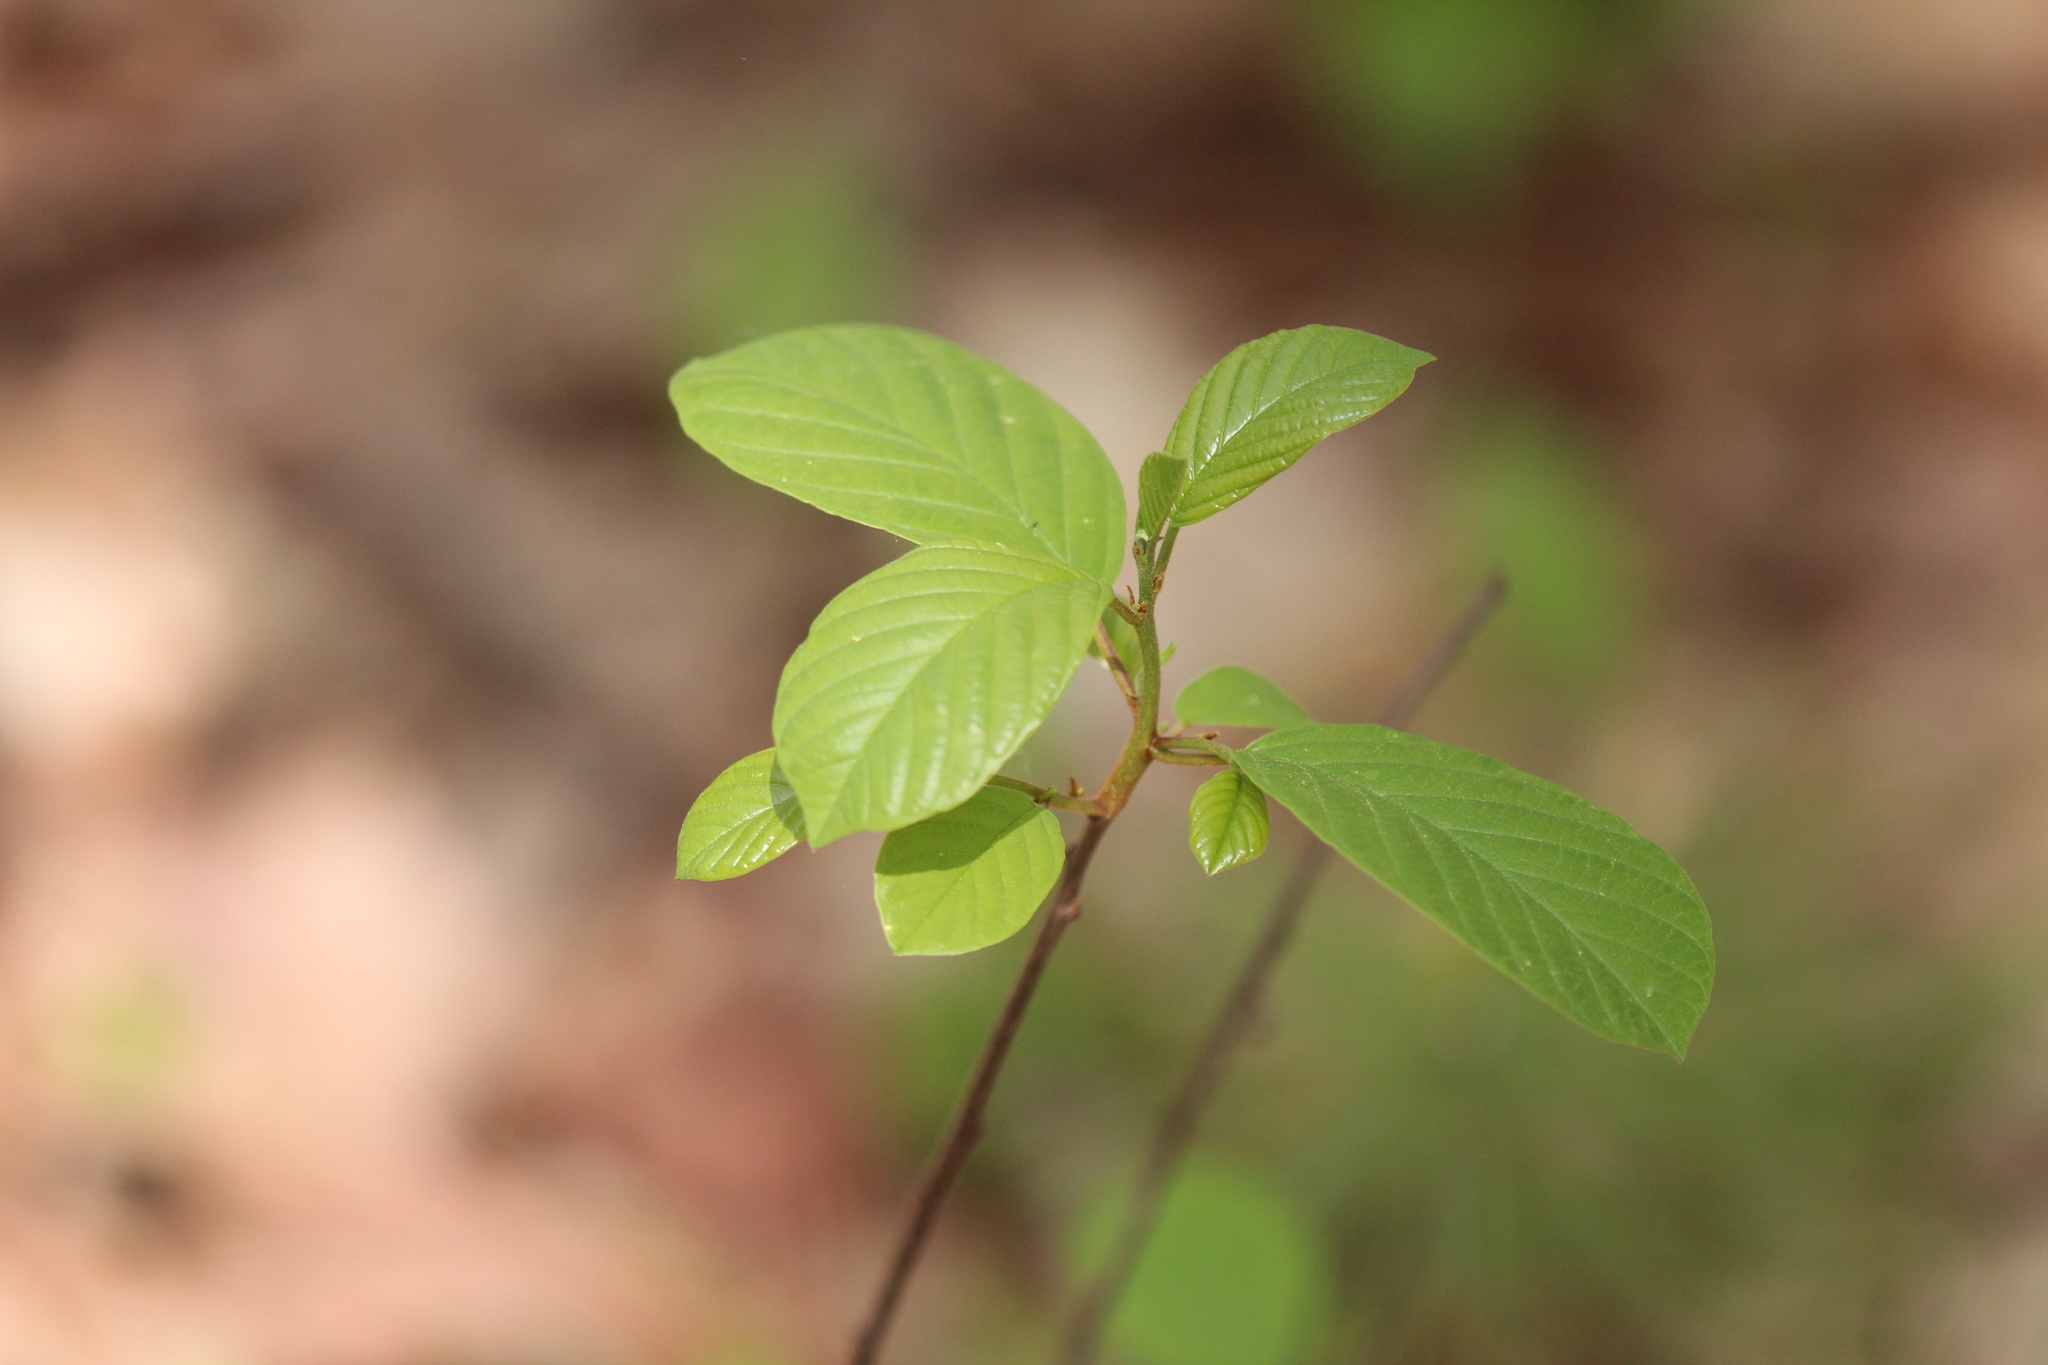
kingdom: Plantae
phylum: Tracheophyta
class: Magnoliopsida
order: Rosales
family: Rhamnaceae
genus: Frangula
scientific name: Frangula alnus
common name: Alder buckthorn
